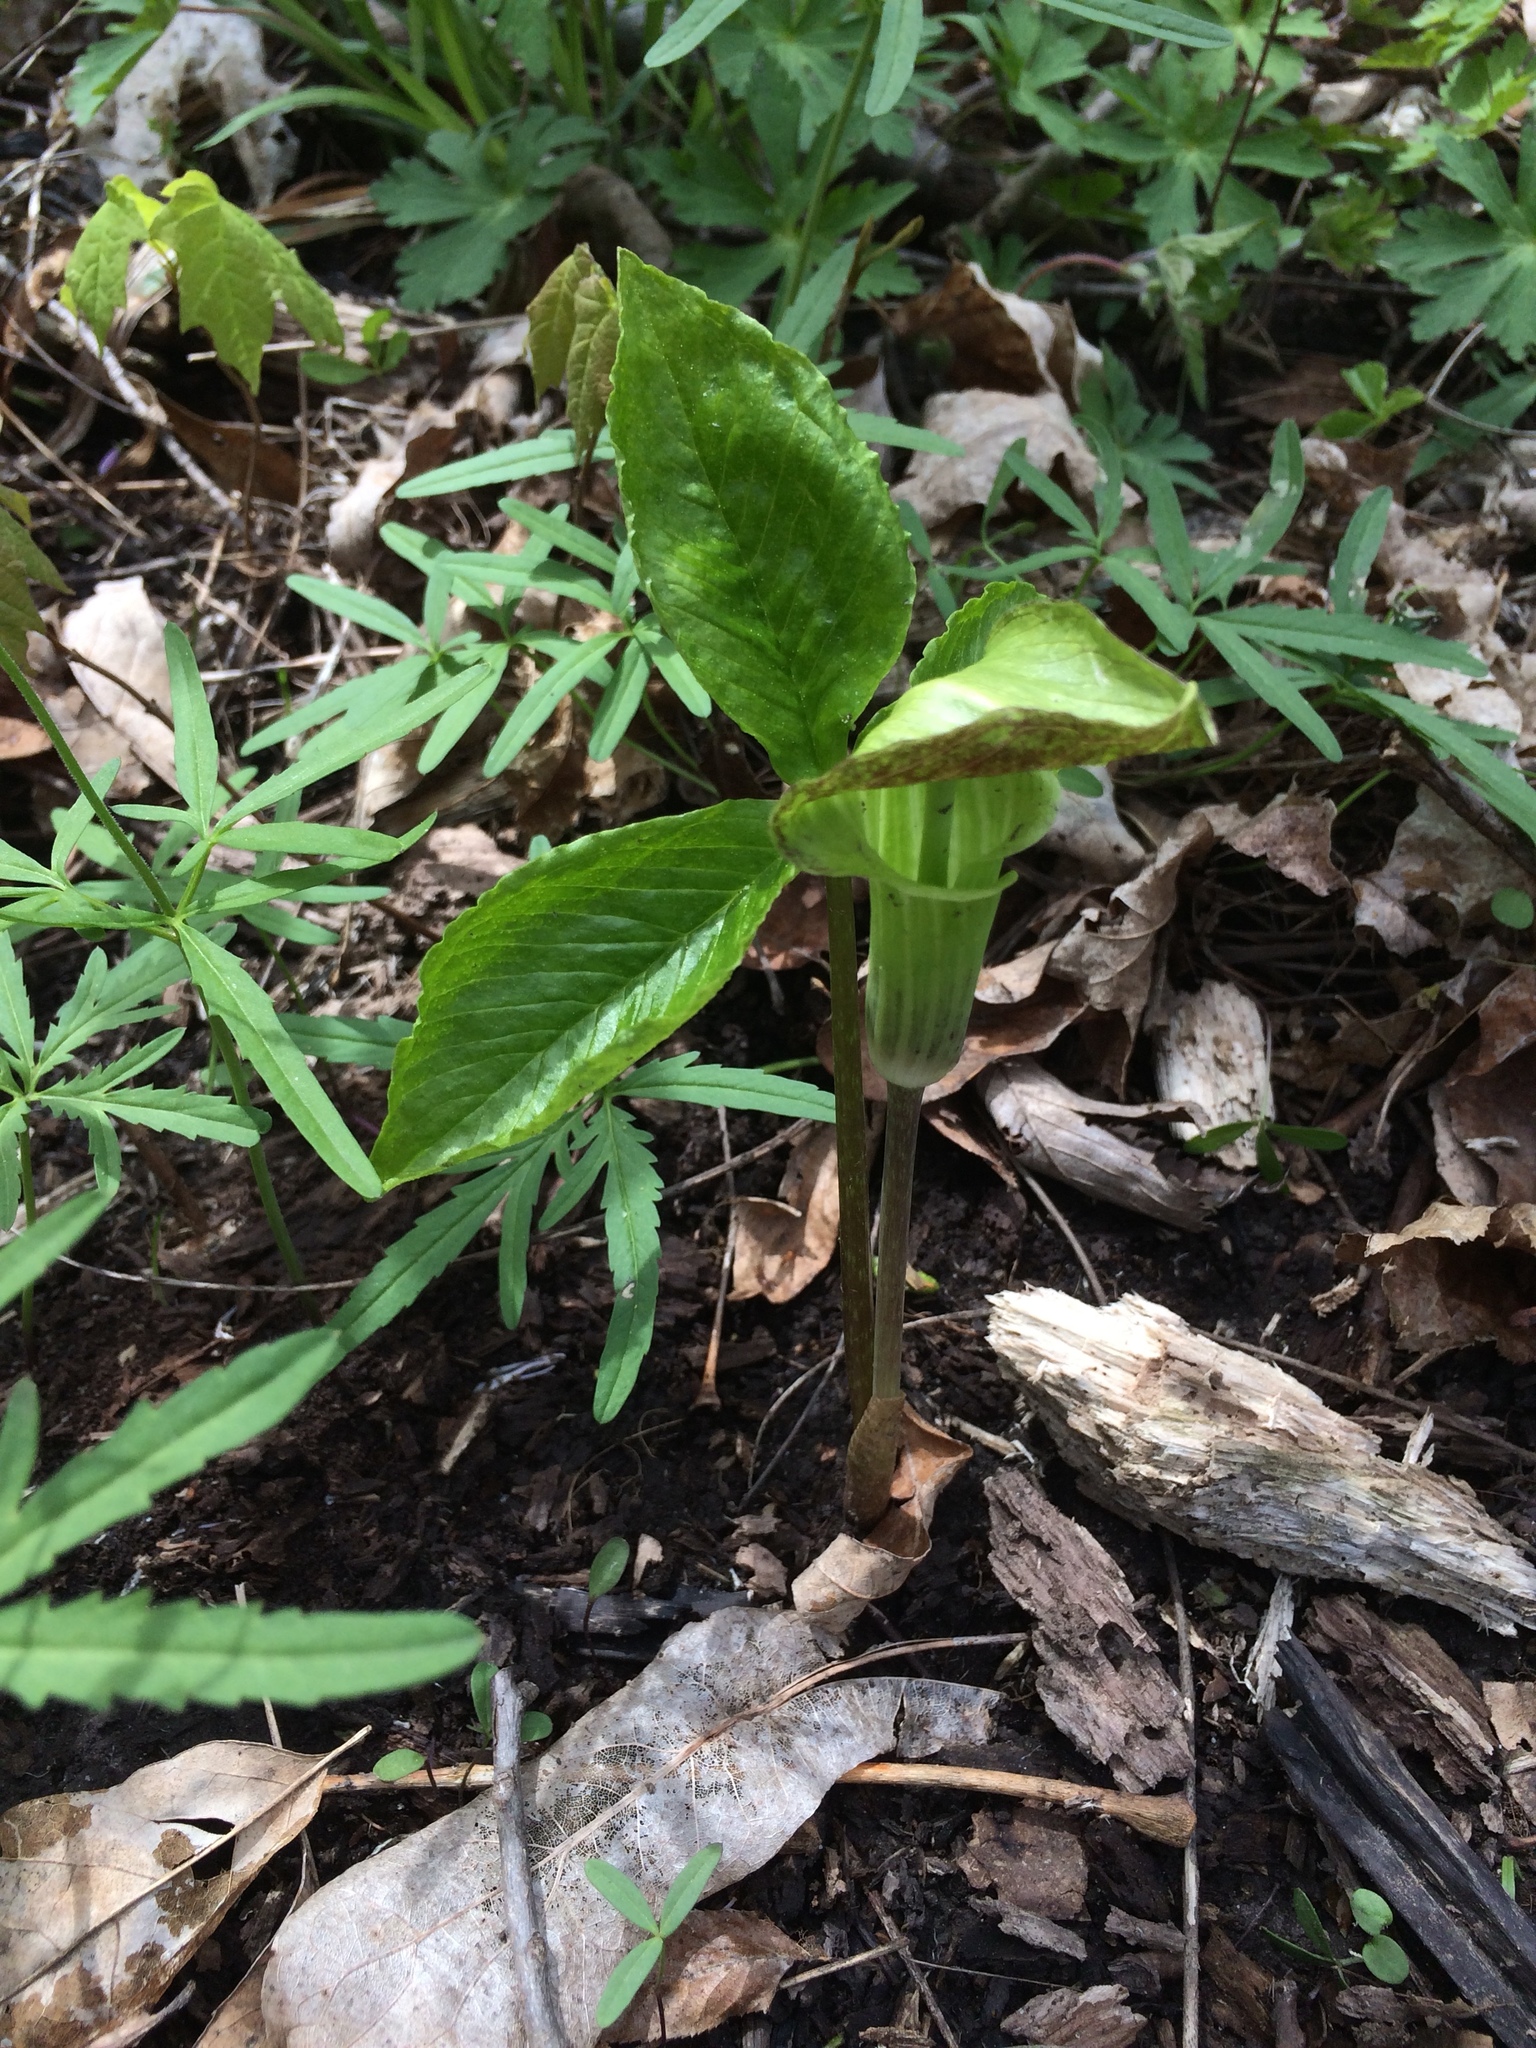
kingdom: Plantae
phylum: Tracheophyta
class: Liliopsida
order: Alismatales
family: Araceae
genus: Arisaema
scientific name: Arisaema triphyllum
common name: Jack-in-the-pulpit
